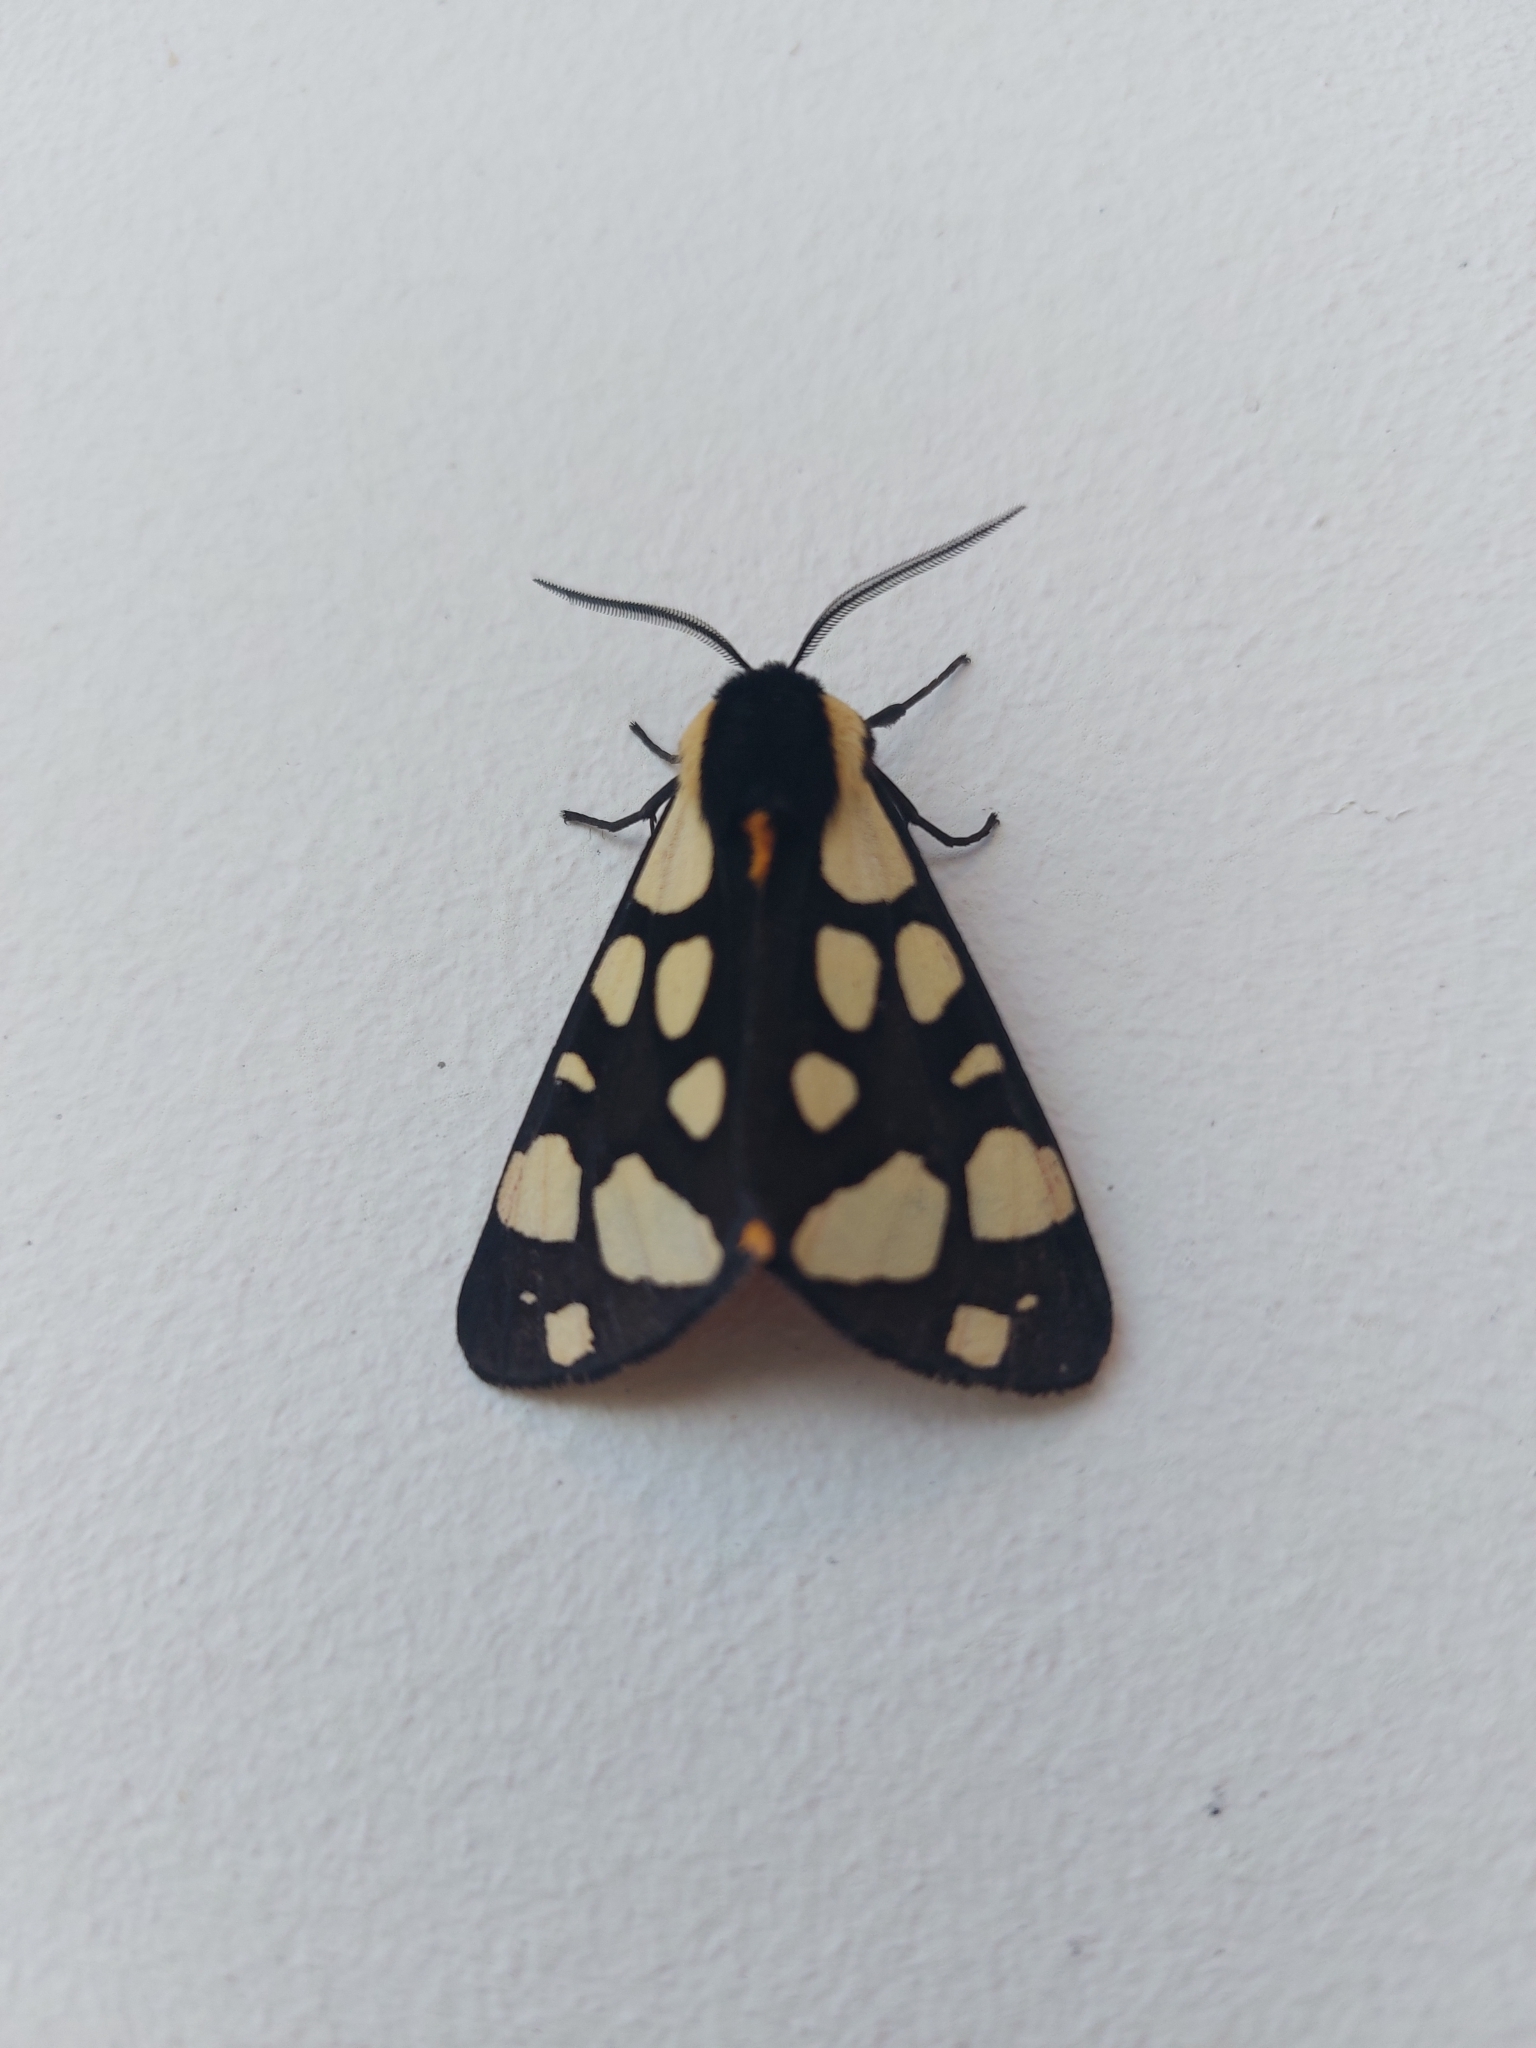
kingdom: Animalia
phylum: Arthropoda
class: Insecta
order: Lepidoptera
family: Erebidae
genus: Epicallia
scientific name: Epicallia villica
